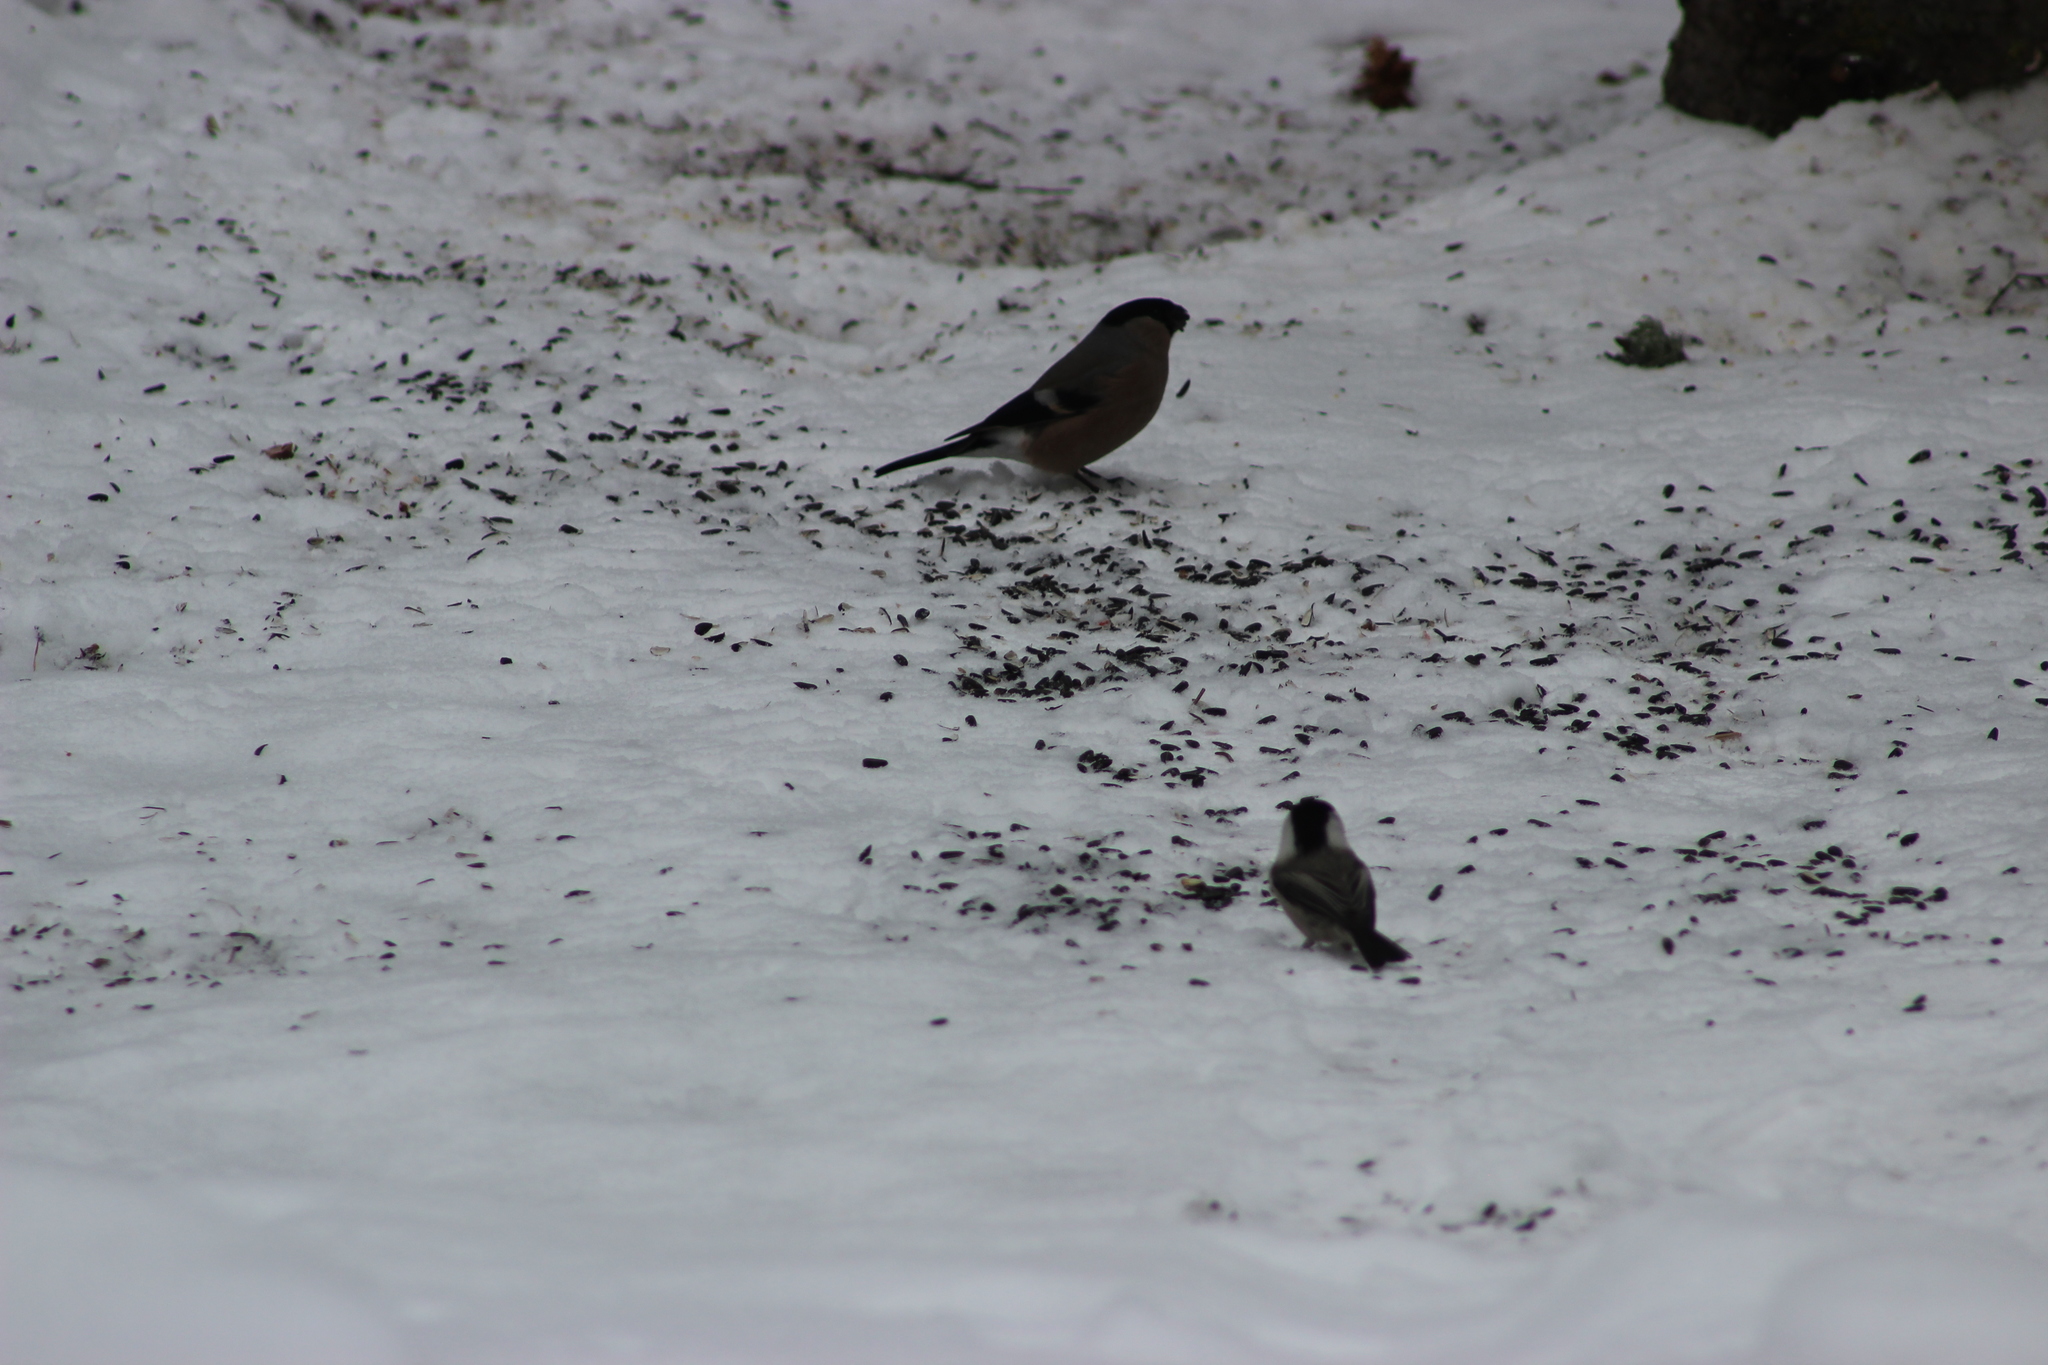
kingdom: Animalia
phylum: Chordata
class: Aves
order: Passeriformes
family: Fringillidae
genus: Pyrrhula
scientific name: Pyrrhula pyrrhula
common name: Eurasian bullfinch
